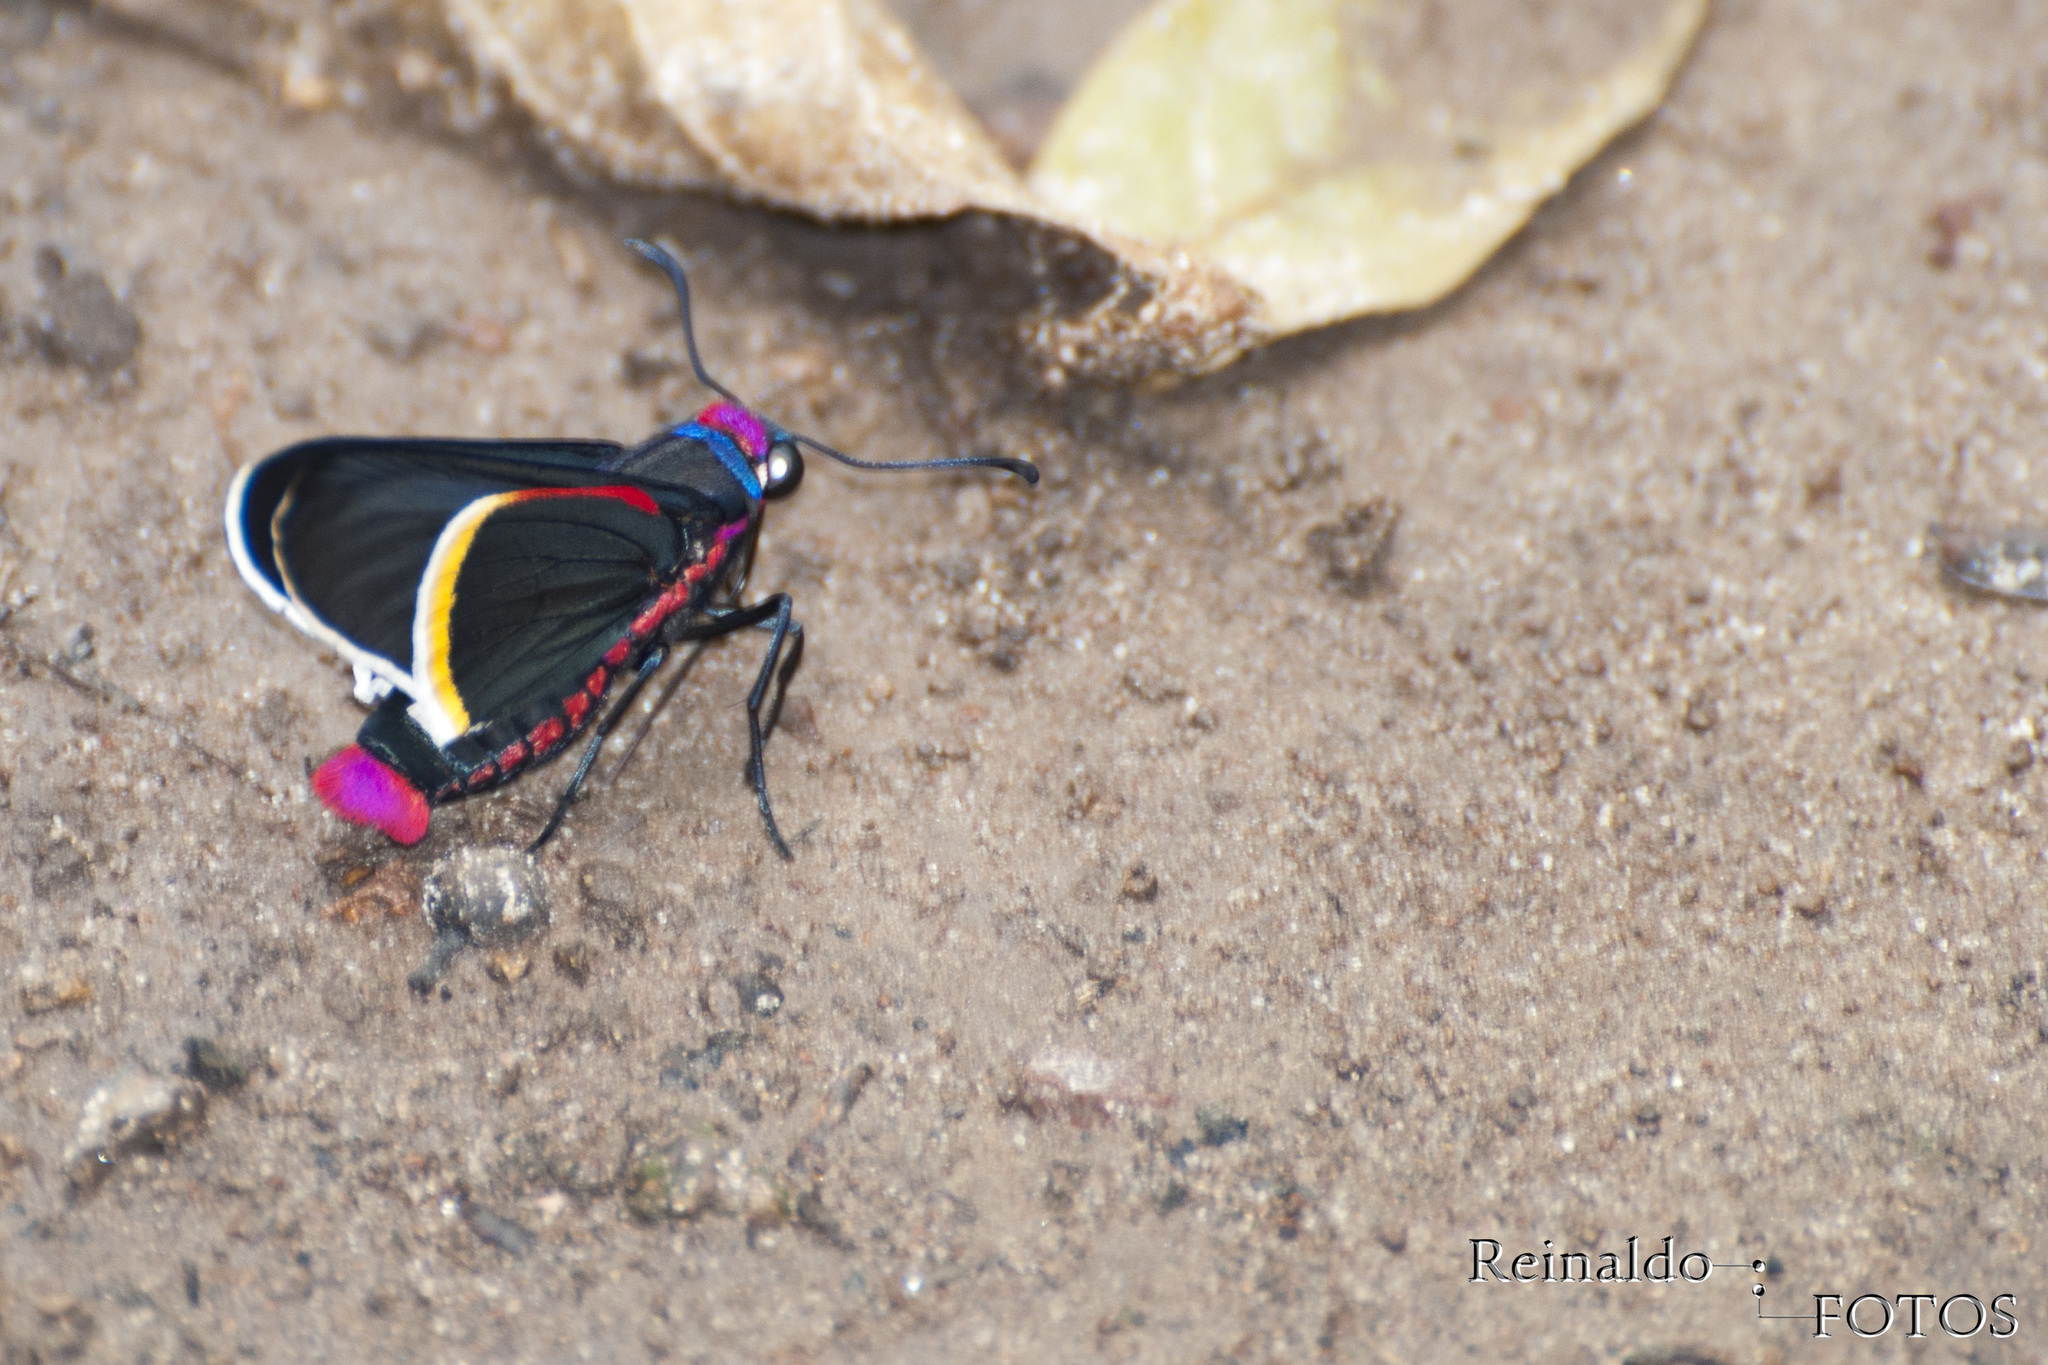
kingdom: Animalia
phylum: Arthropoda
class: Insecta
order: Lepidoptera
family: Hesperiidae
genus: Mysoria
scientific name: Mysoria barcastus
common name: Royal firetip
